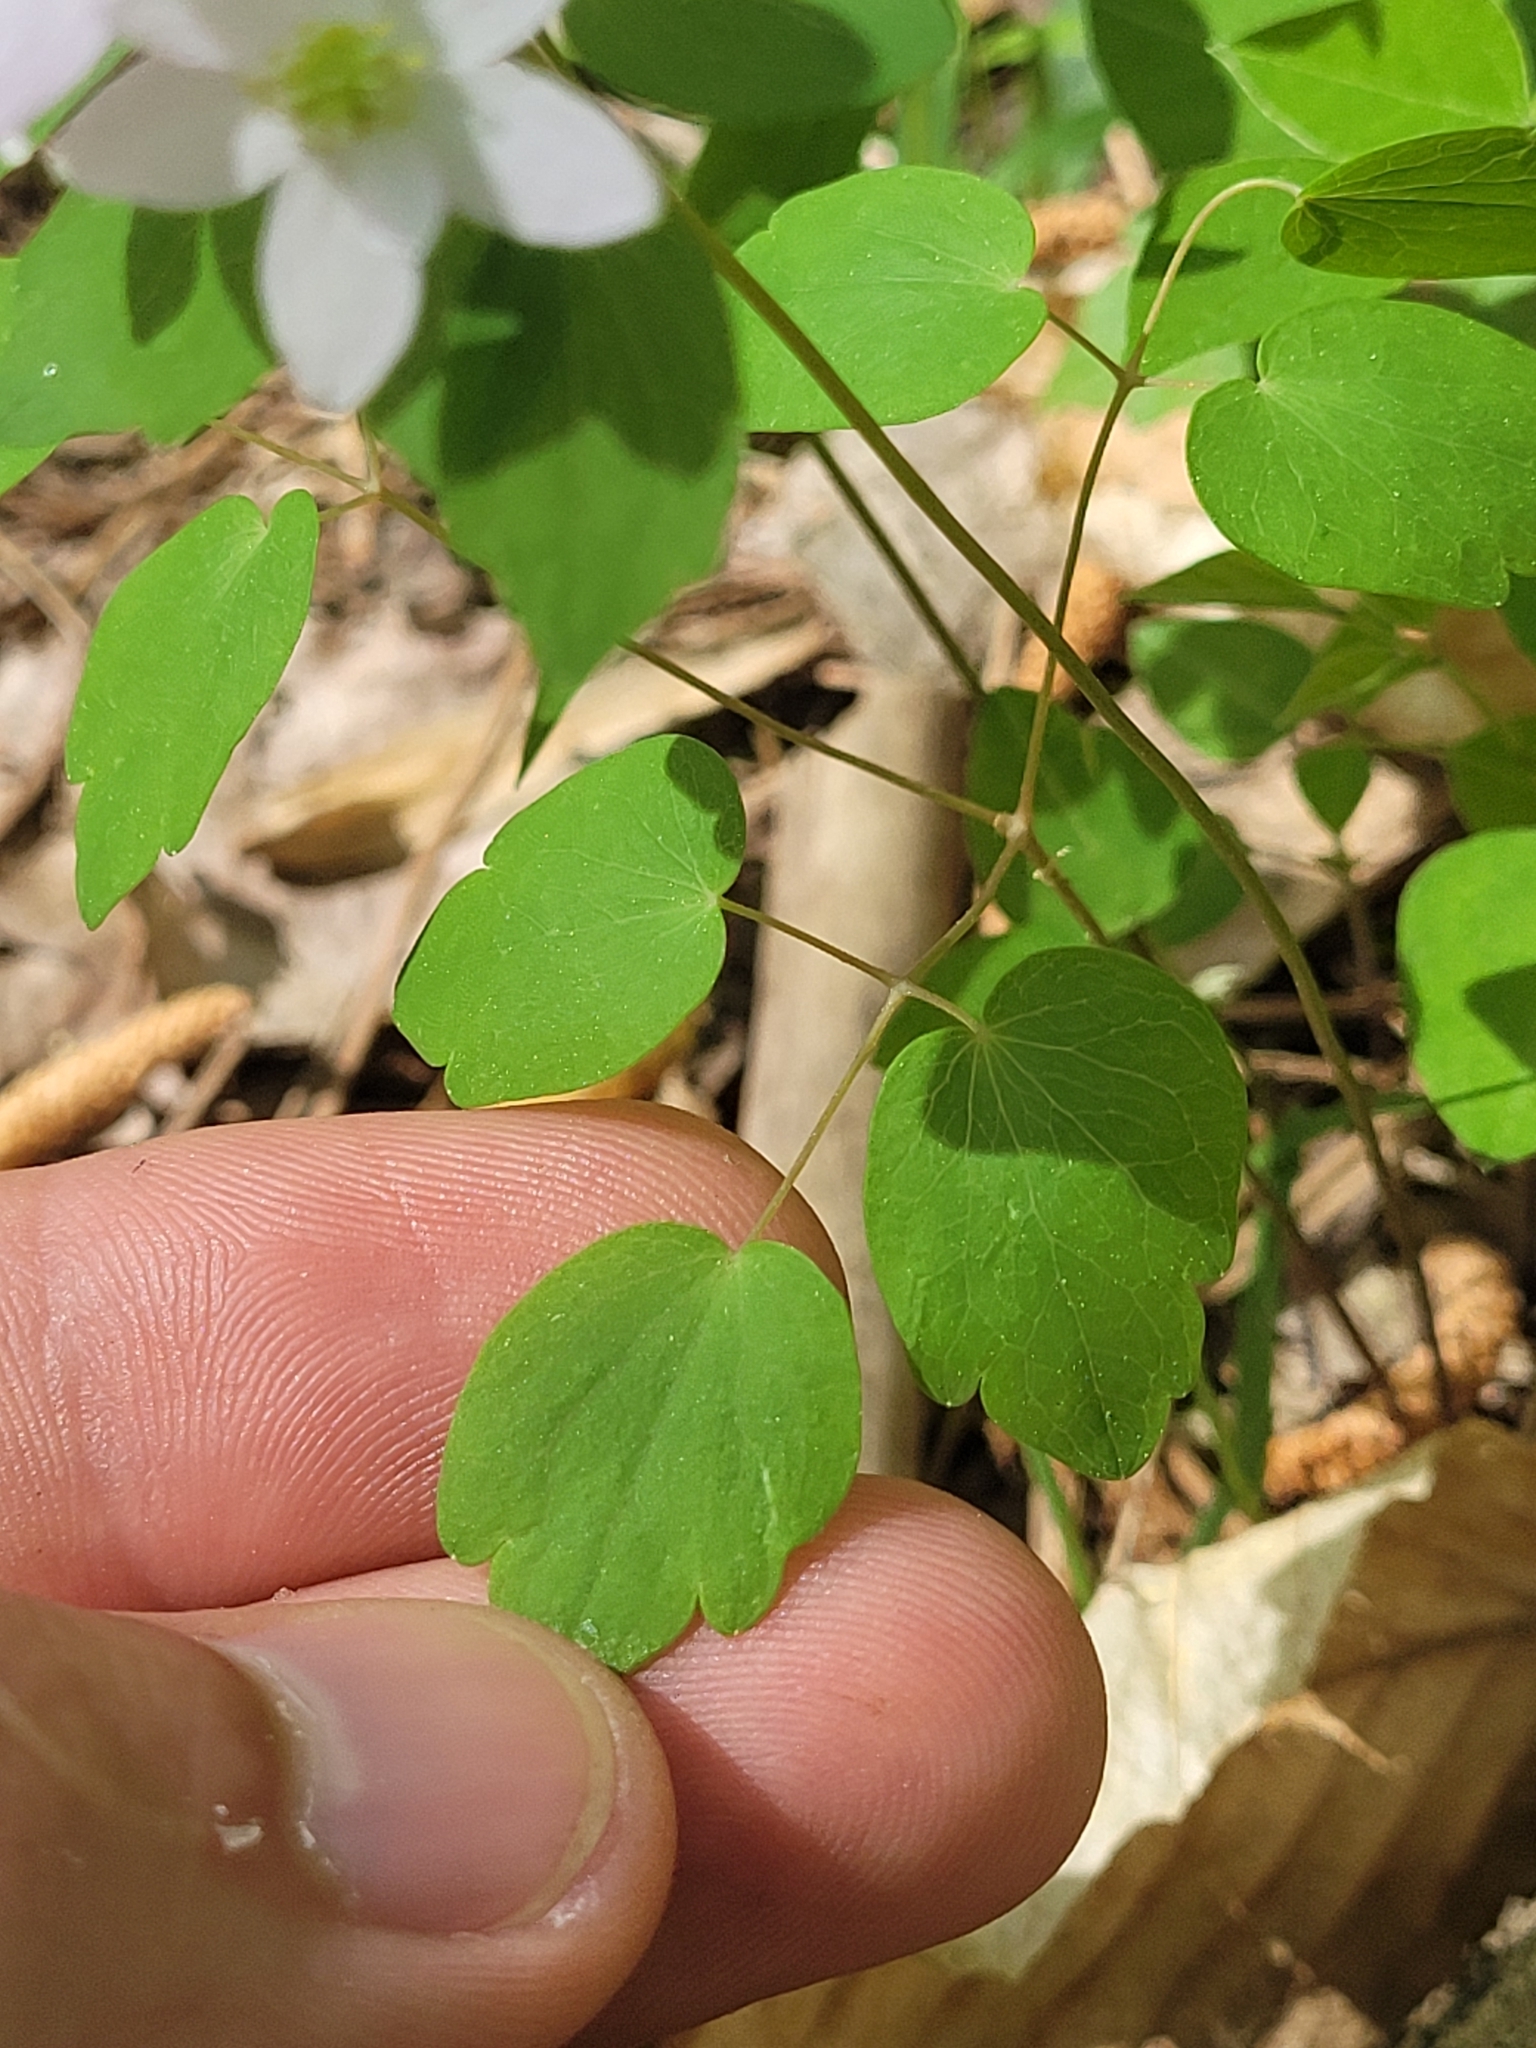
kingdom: Plantae
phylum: Tracheophyta
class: Magnoliopsida
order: Ranunculales
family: Ranunculaceae
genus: Thalictrum
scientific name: Thalictrum thalictroides
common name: Rue-anemone
